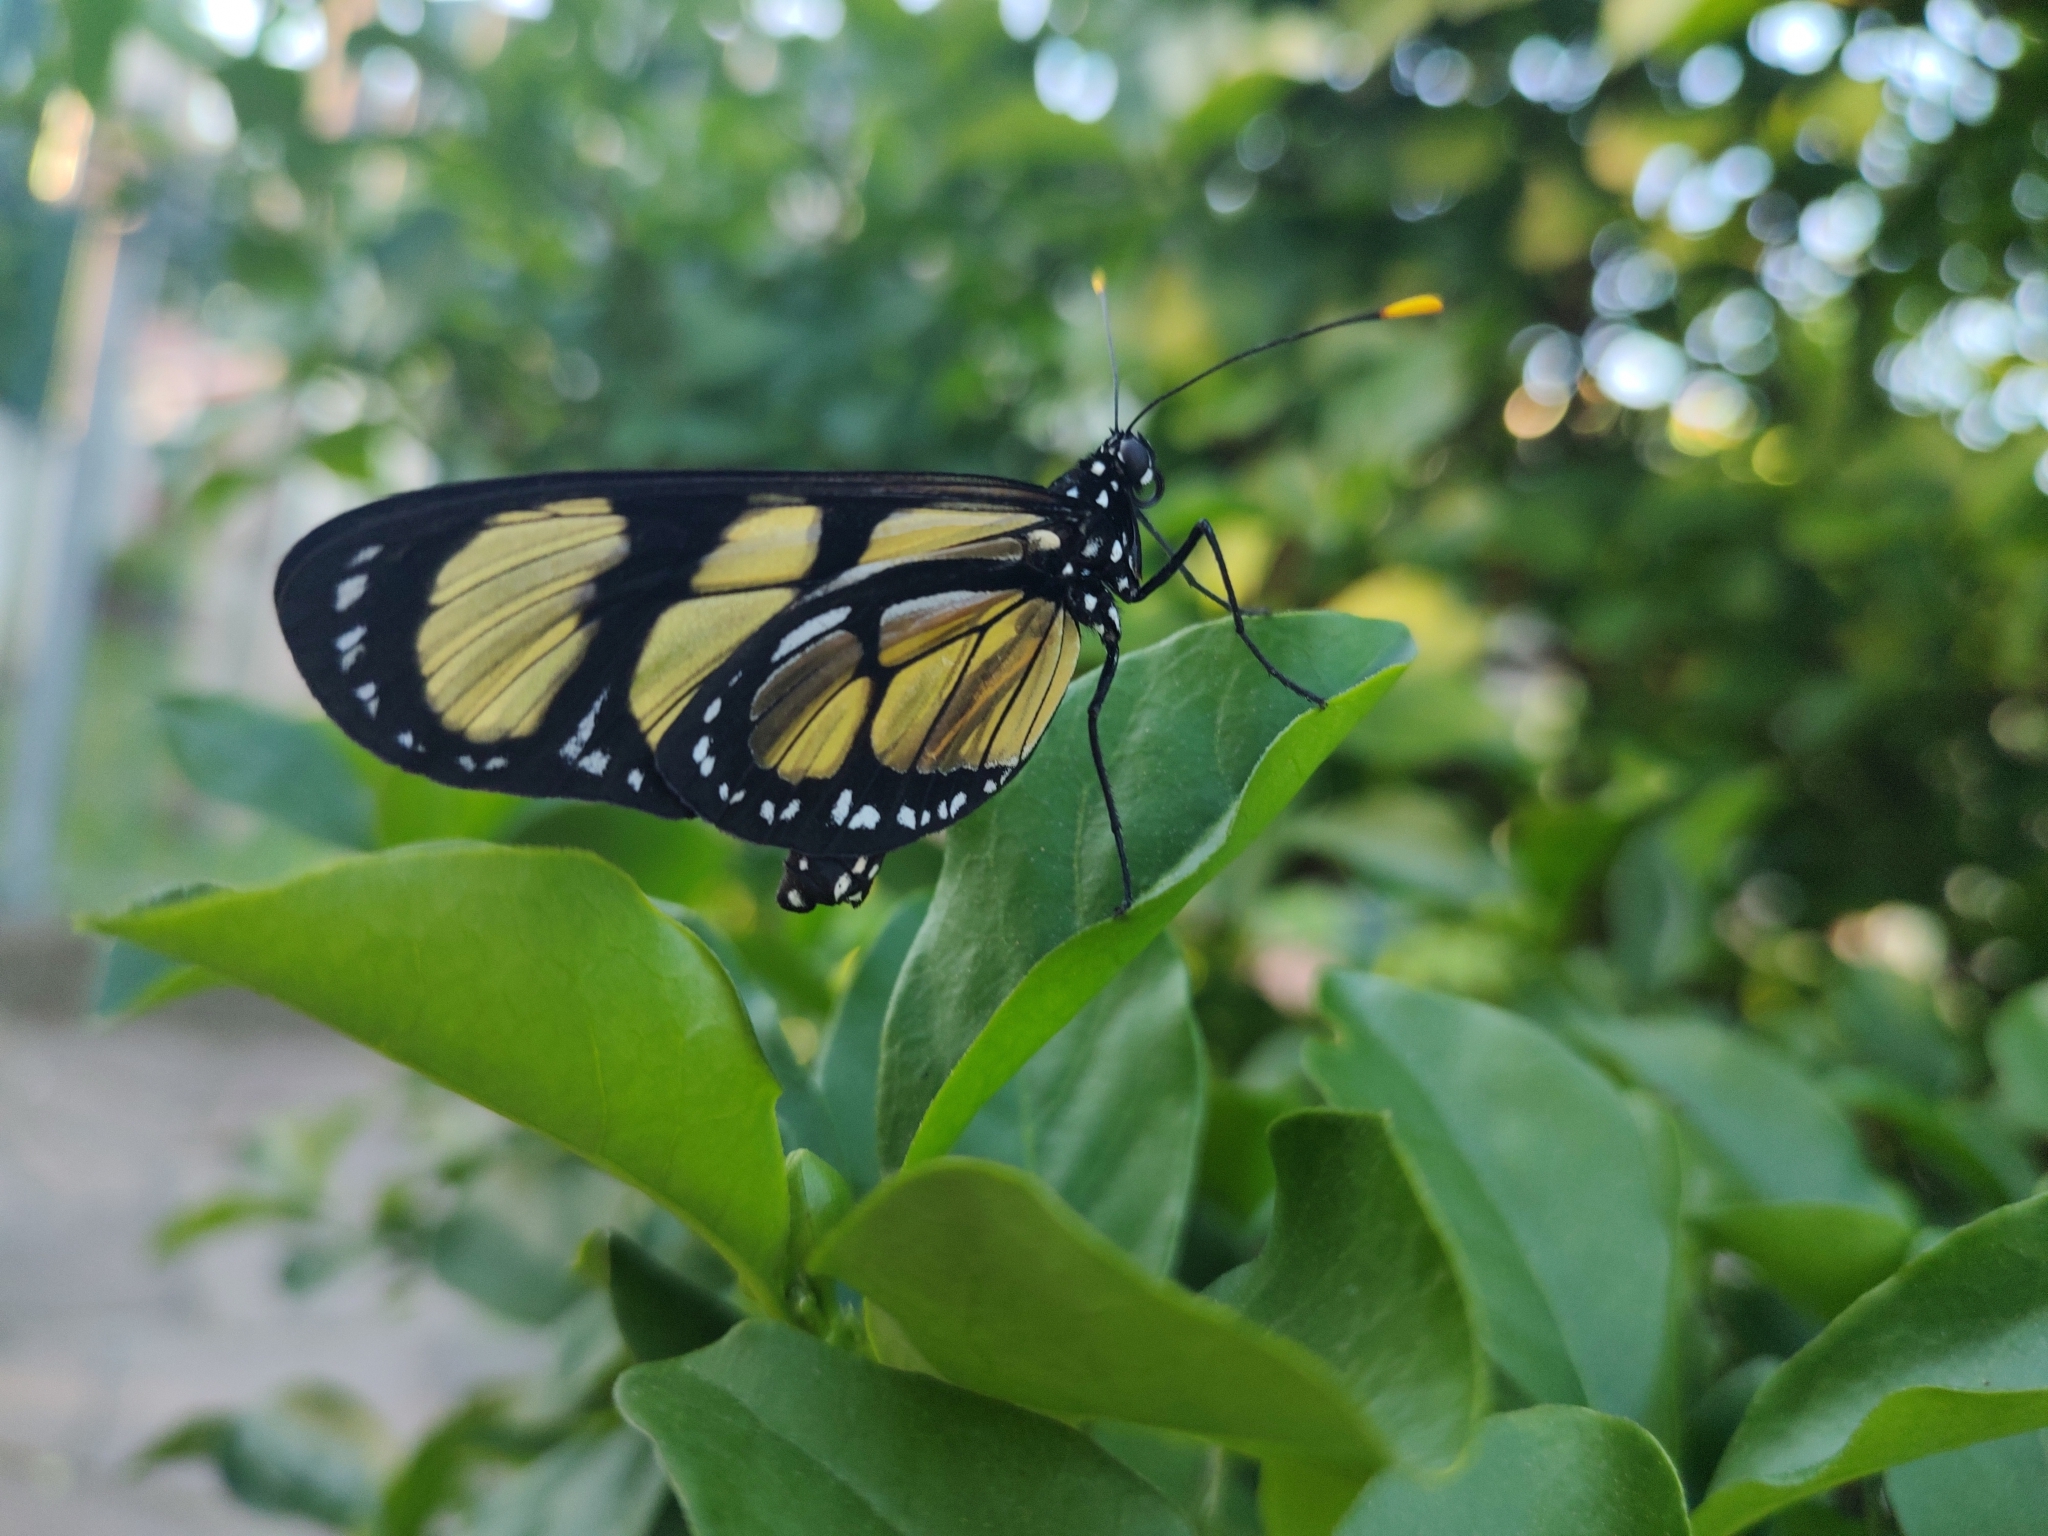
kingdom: Animalia
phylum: Arthropoda
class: Insecta
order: Lepidoptera
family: Nymphalidae
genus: Methona
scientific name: Methona themisto
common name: Themisto amberwing
